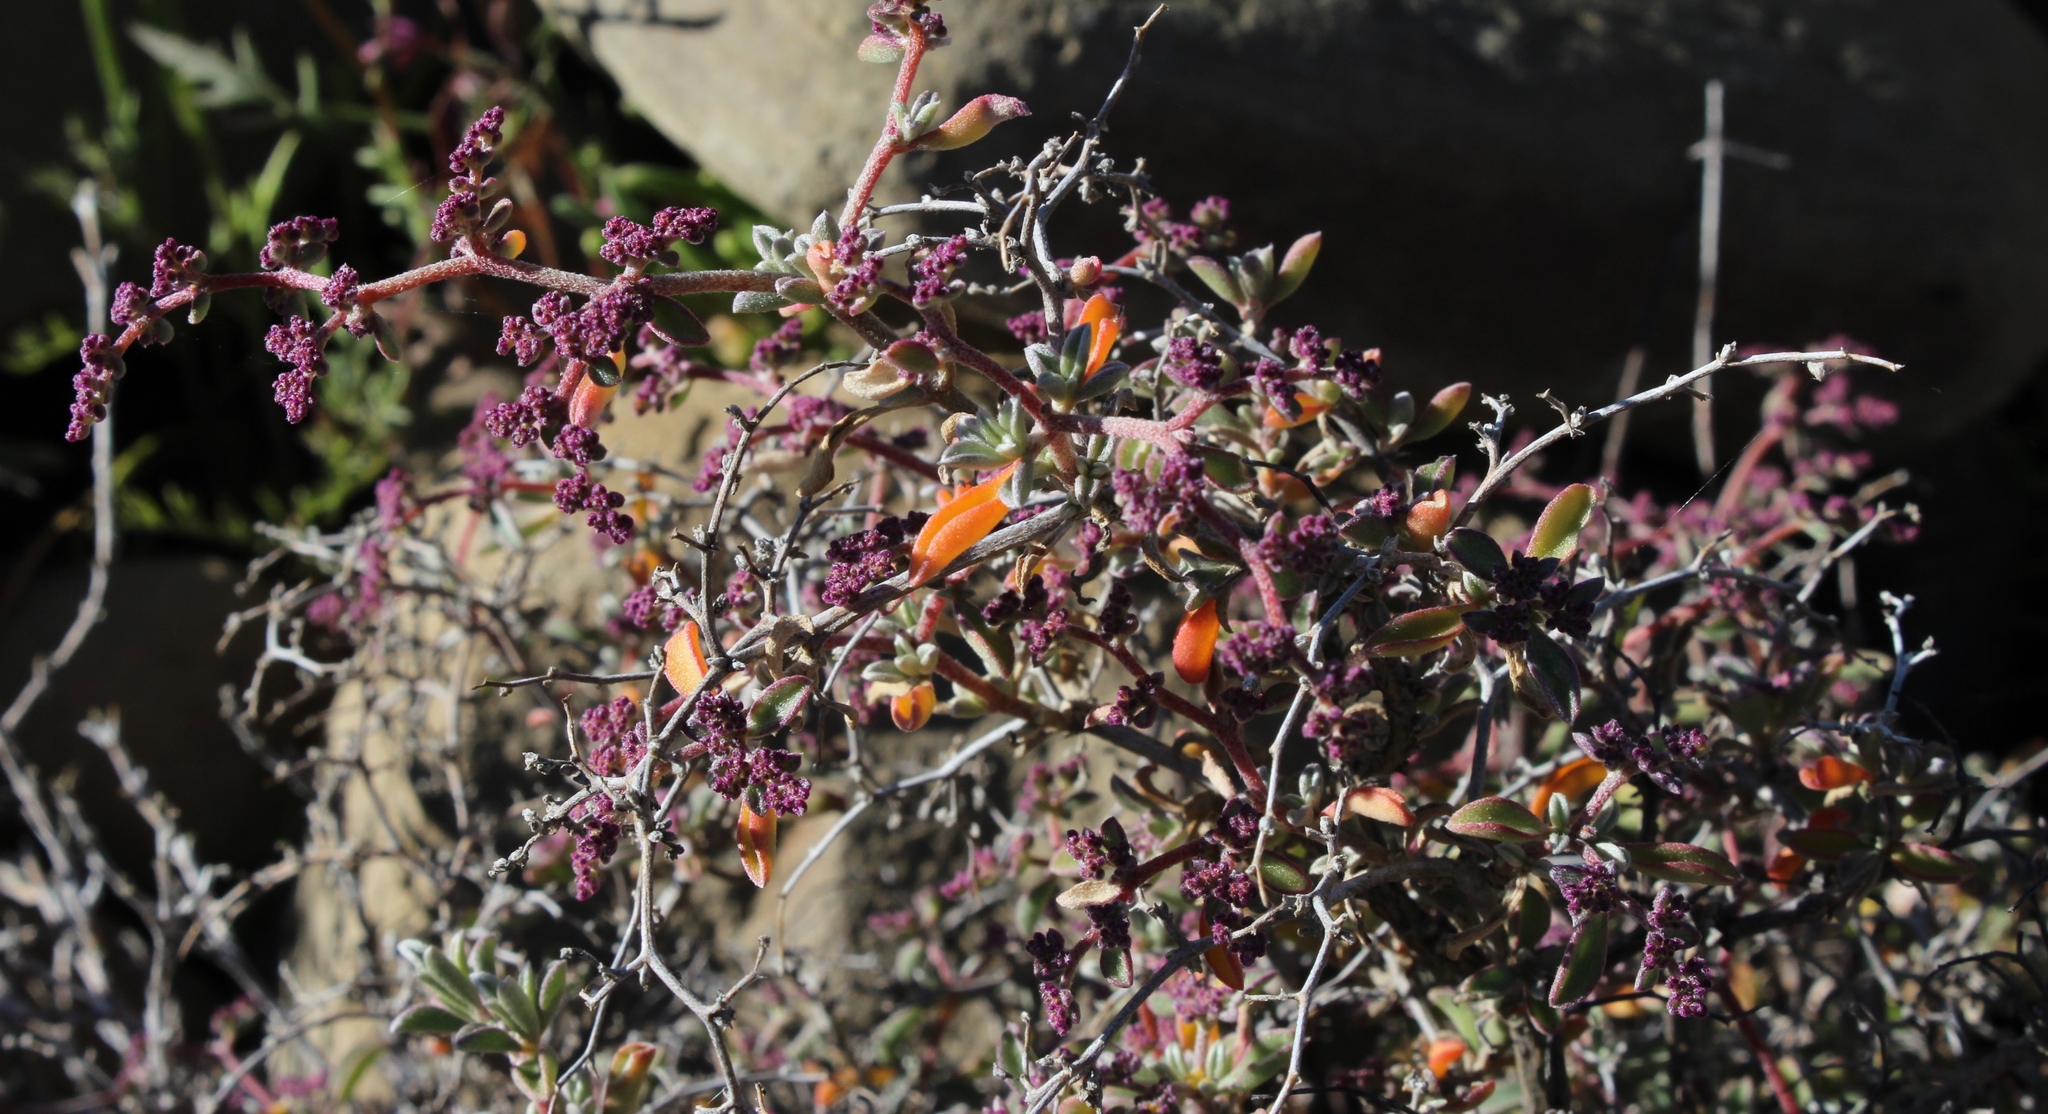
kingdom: Plantae
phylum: Tracheophyta
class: Magnoliopsida
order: Caryophyllales
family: Aizoaceae
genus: Aizoon
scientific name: Aizoon sarcophyllum
